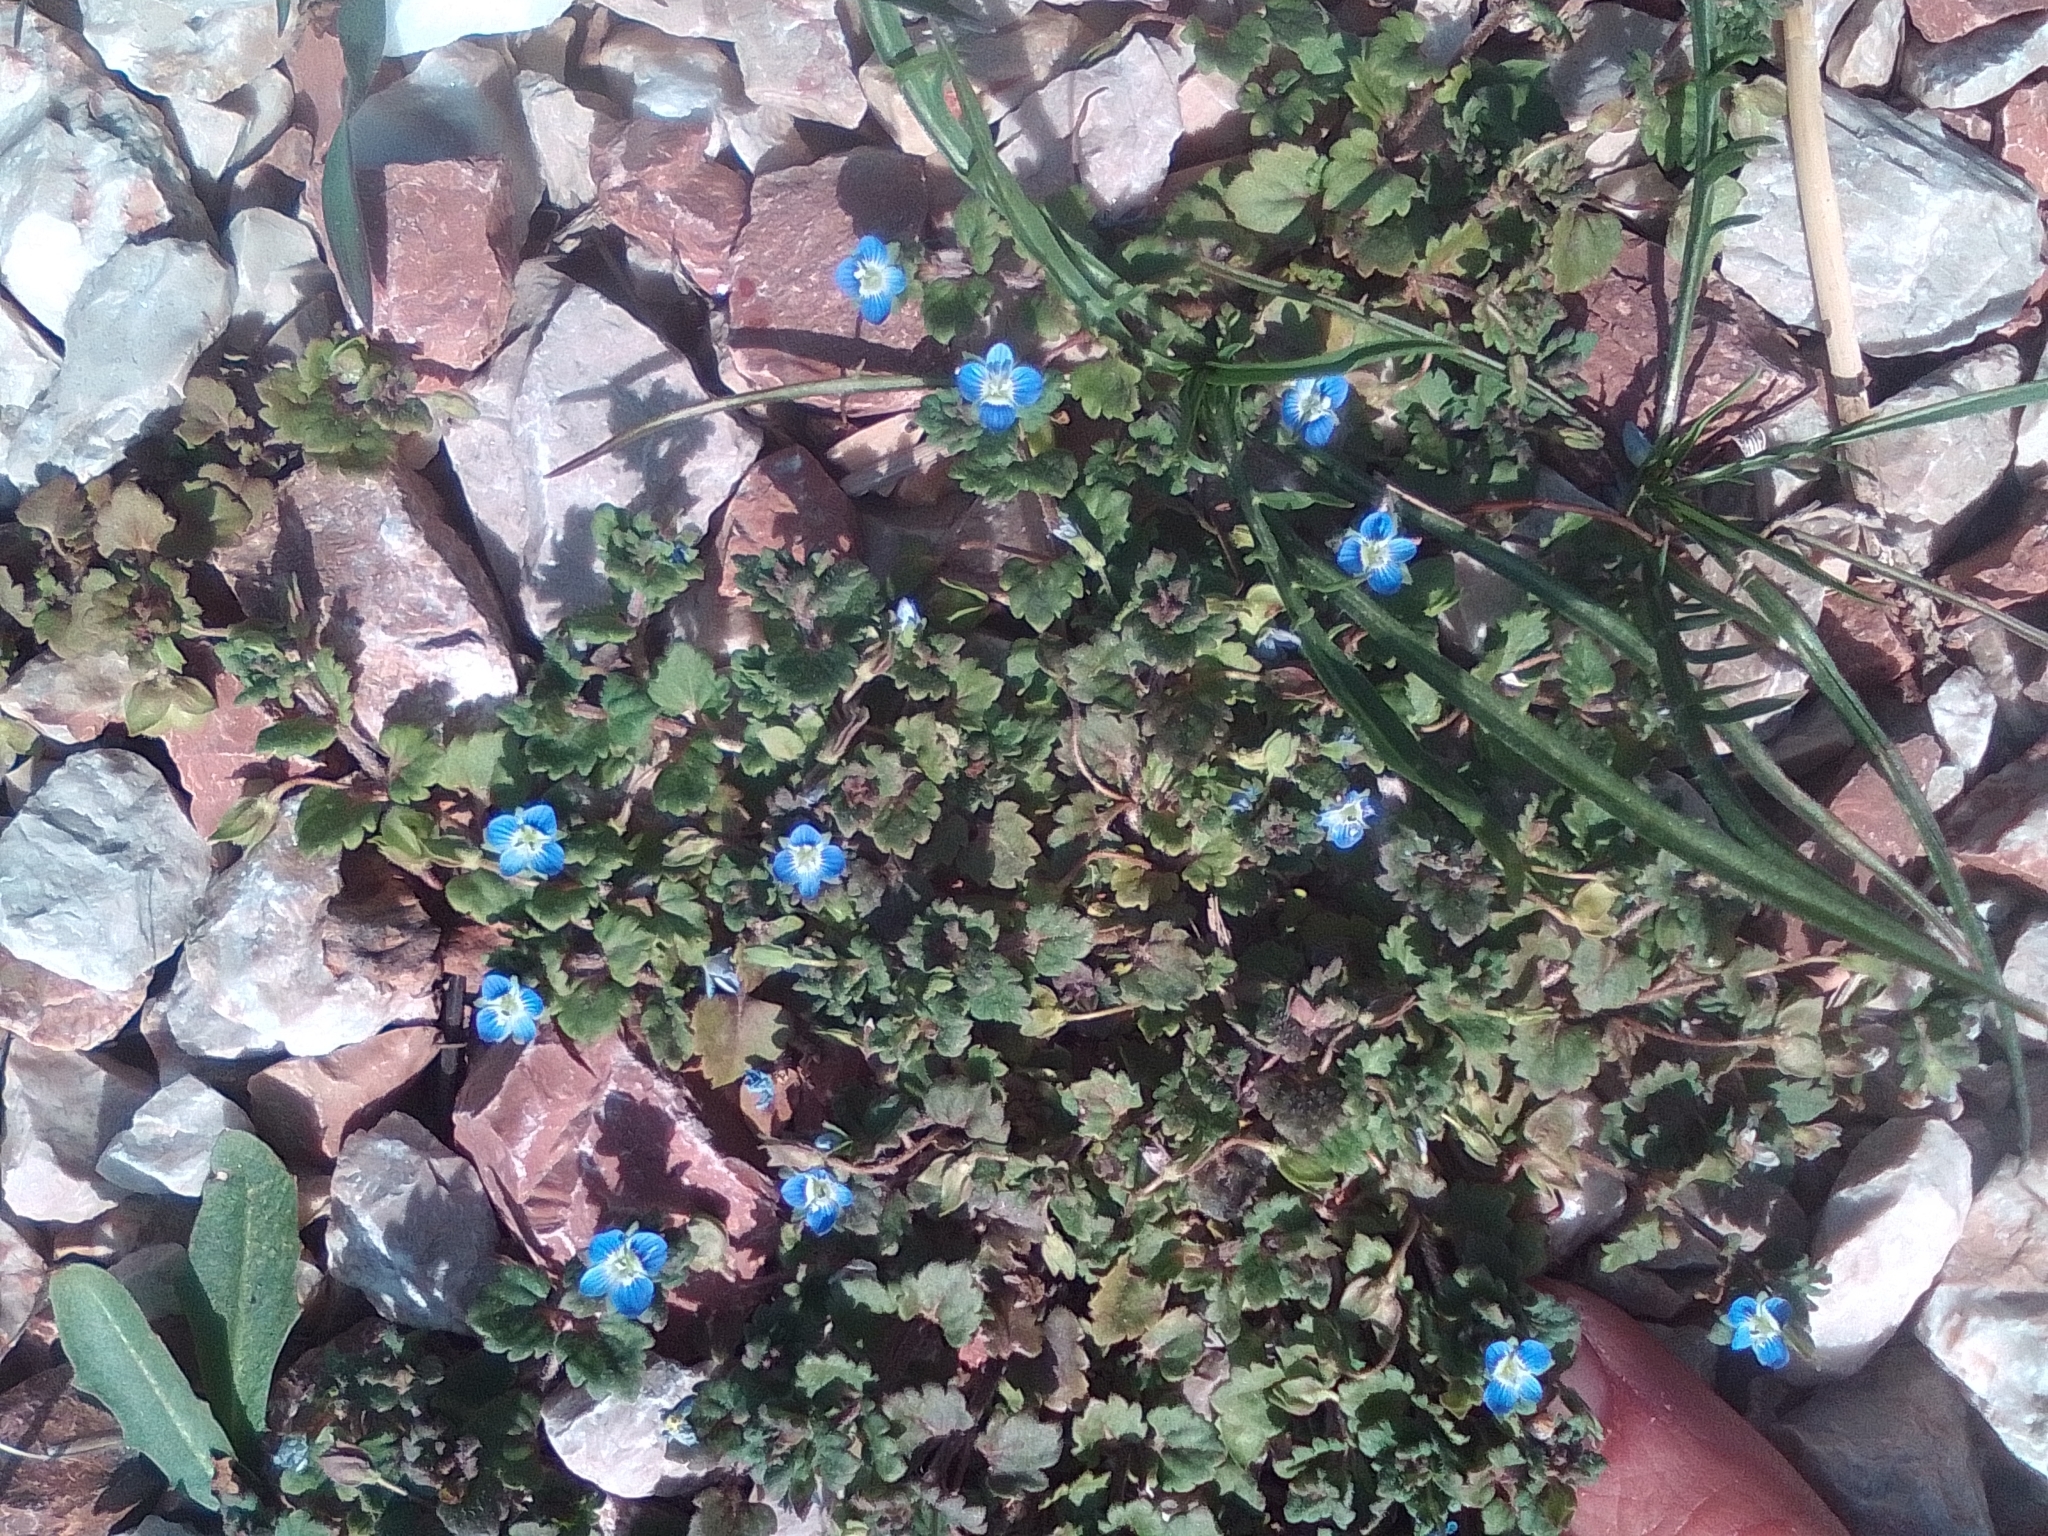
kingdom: Plantae
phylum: Tracheophyta
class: Magnoliopsida
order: Lamiales
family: Plantaginaceae
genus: Veronica
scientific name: Veronica polita
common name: Grey field-speedwell
